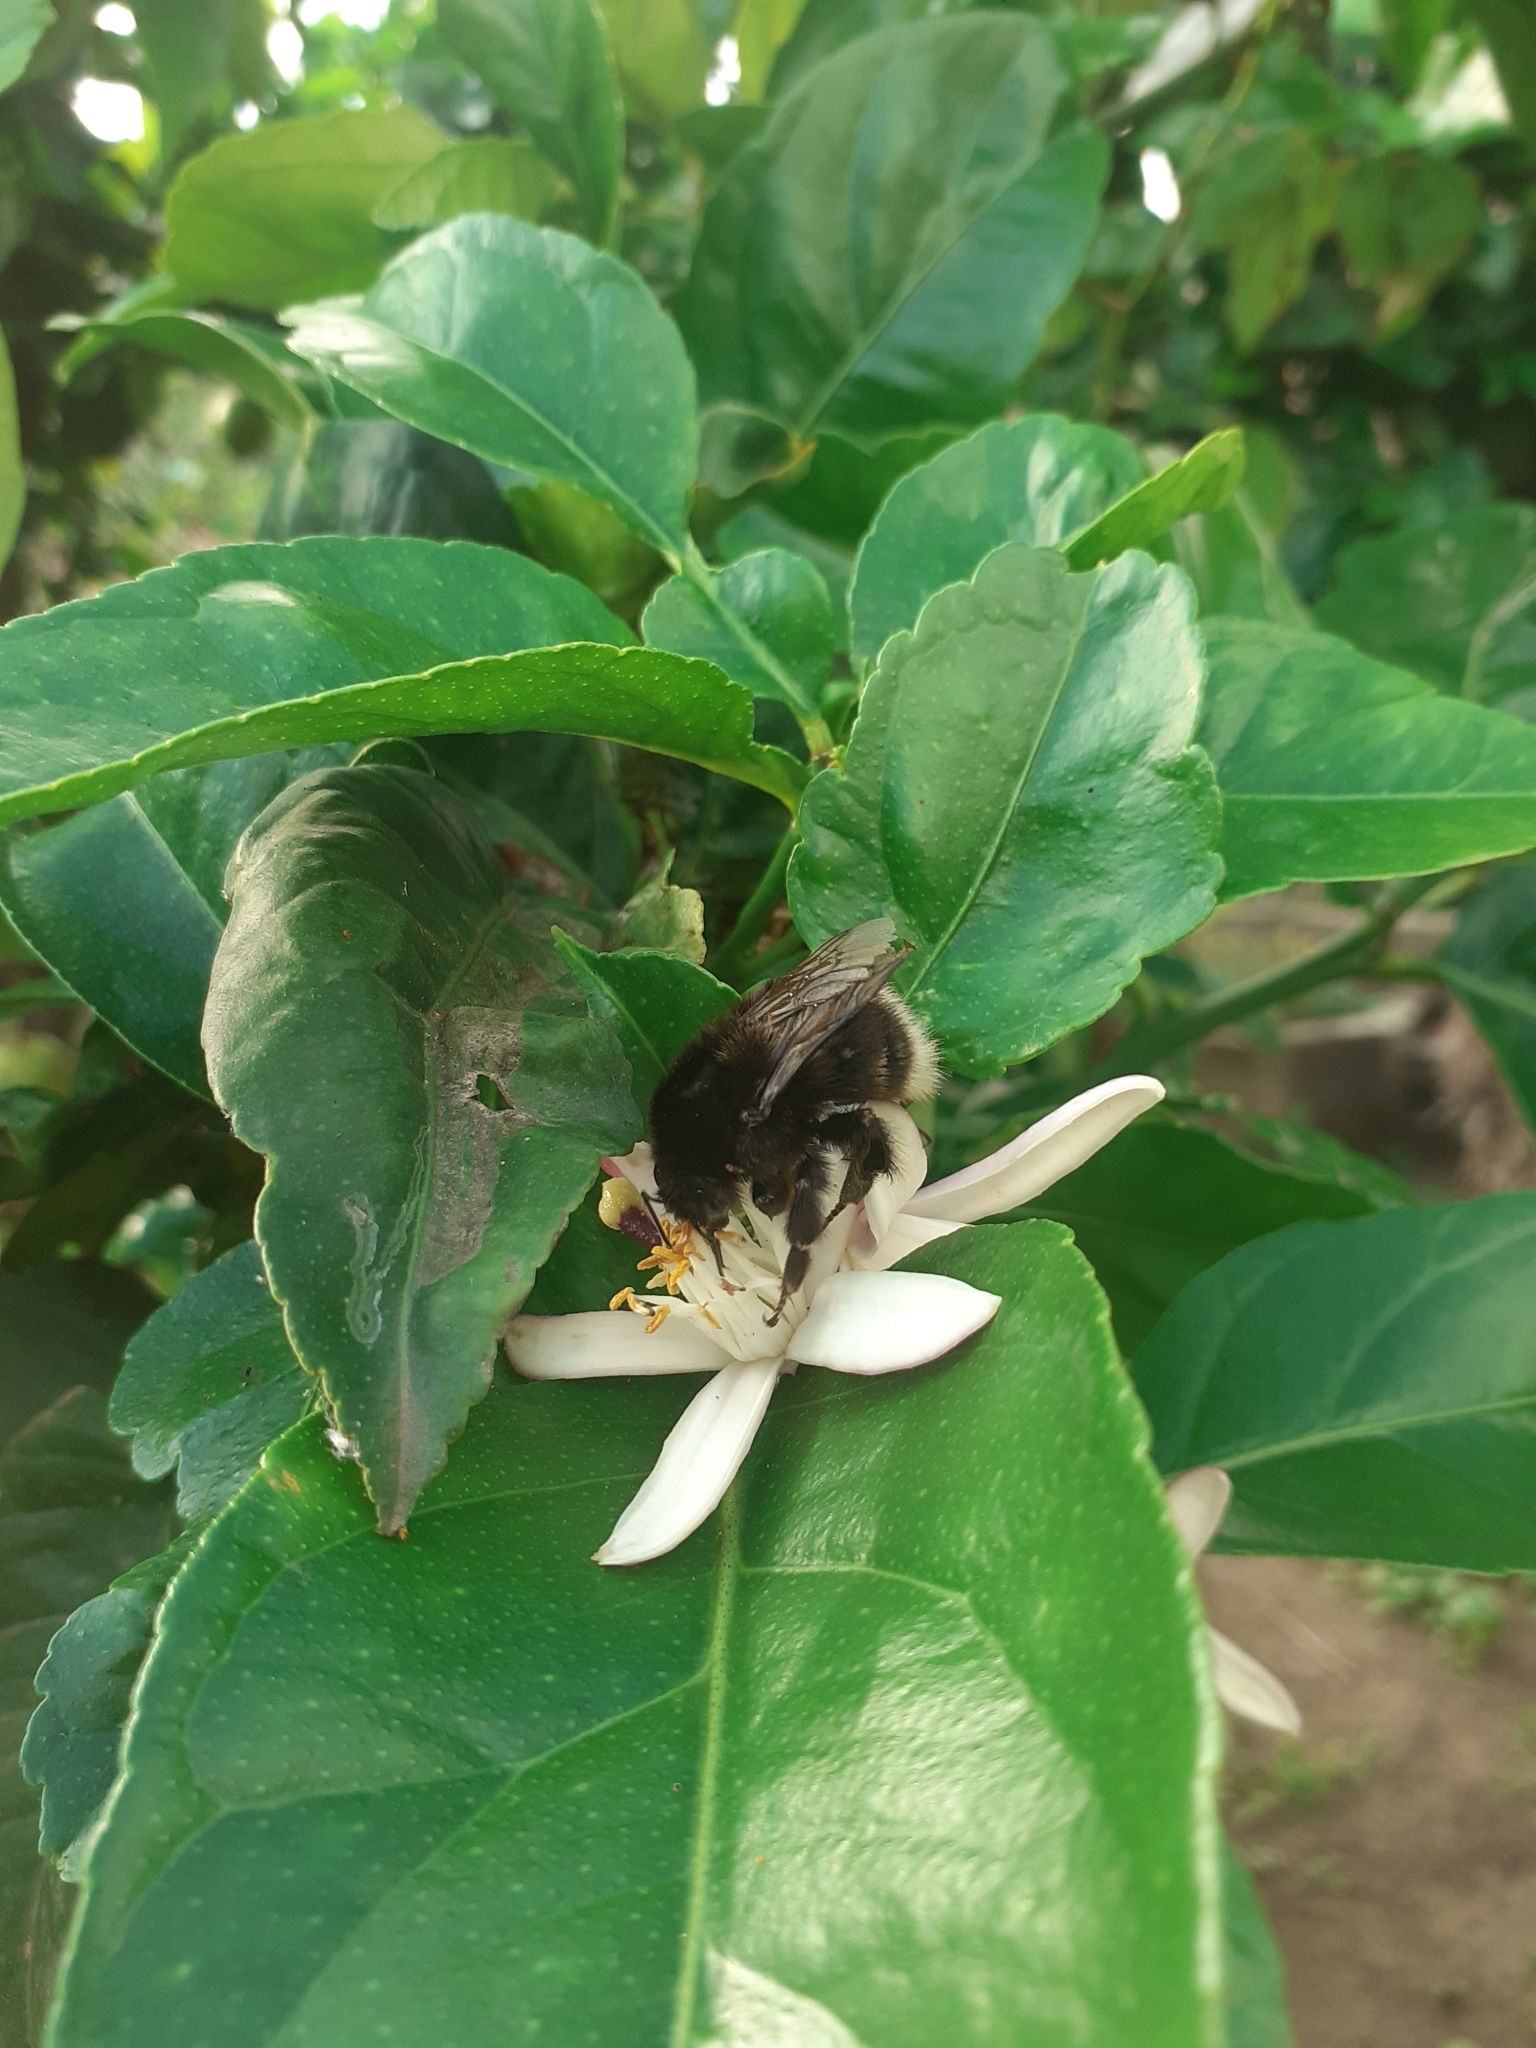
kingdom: Animalia
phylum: Arthropoda
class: Insecta
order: Hymenoptera
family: Apidae
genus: Bombus
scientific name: Bombus terrestris
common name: Buff-tailed bumblebee
